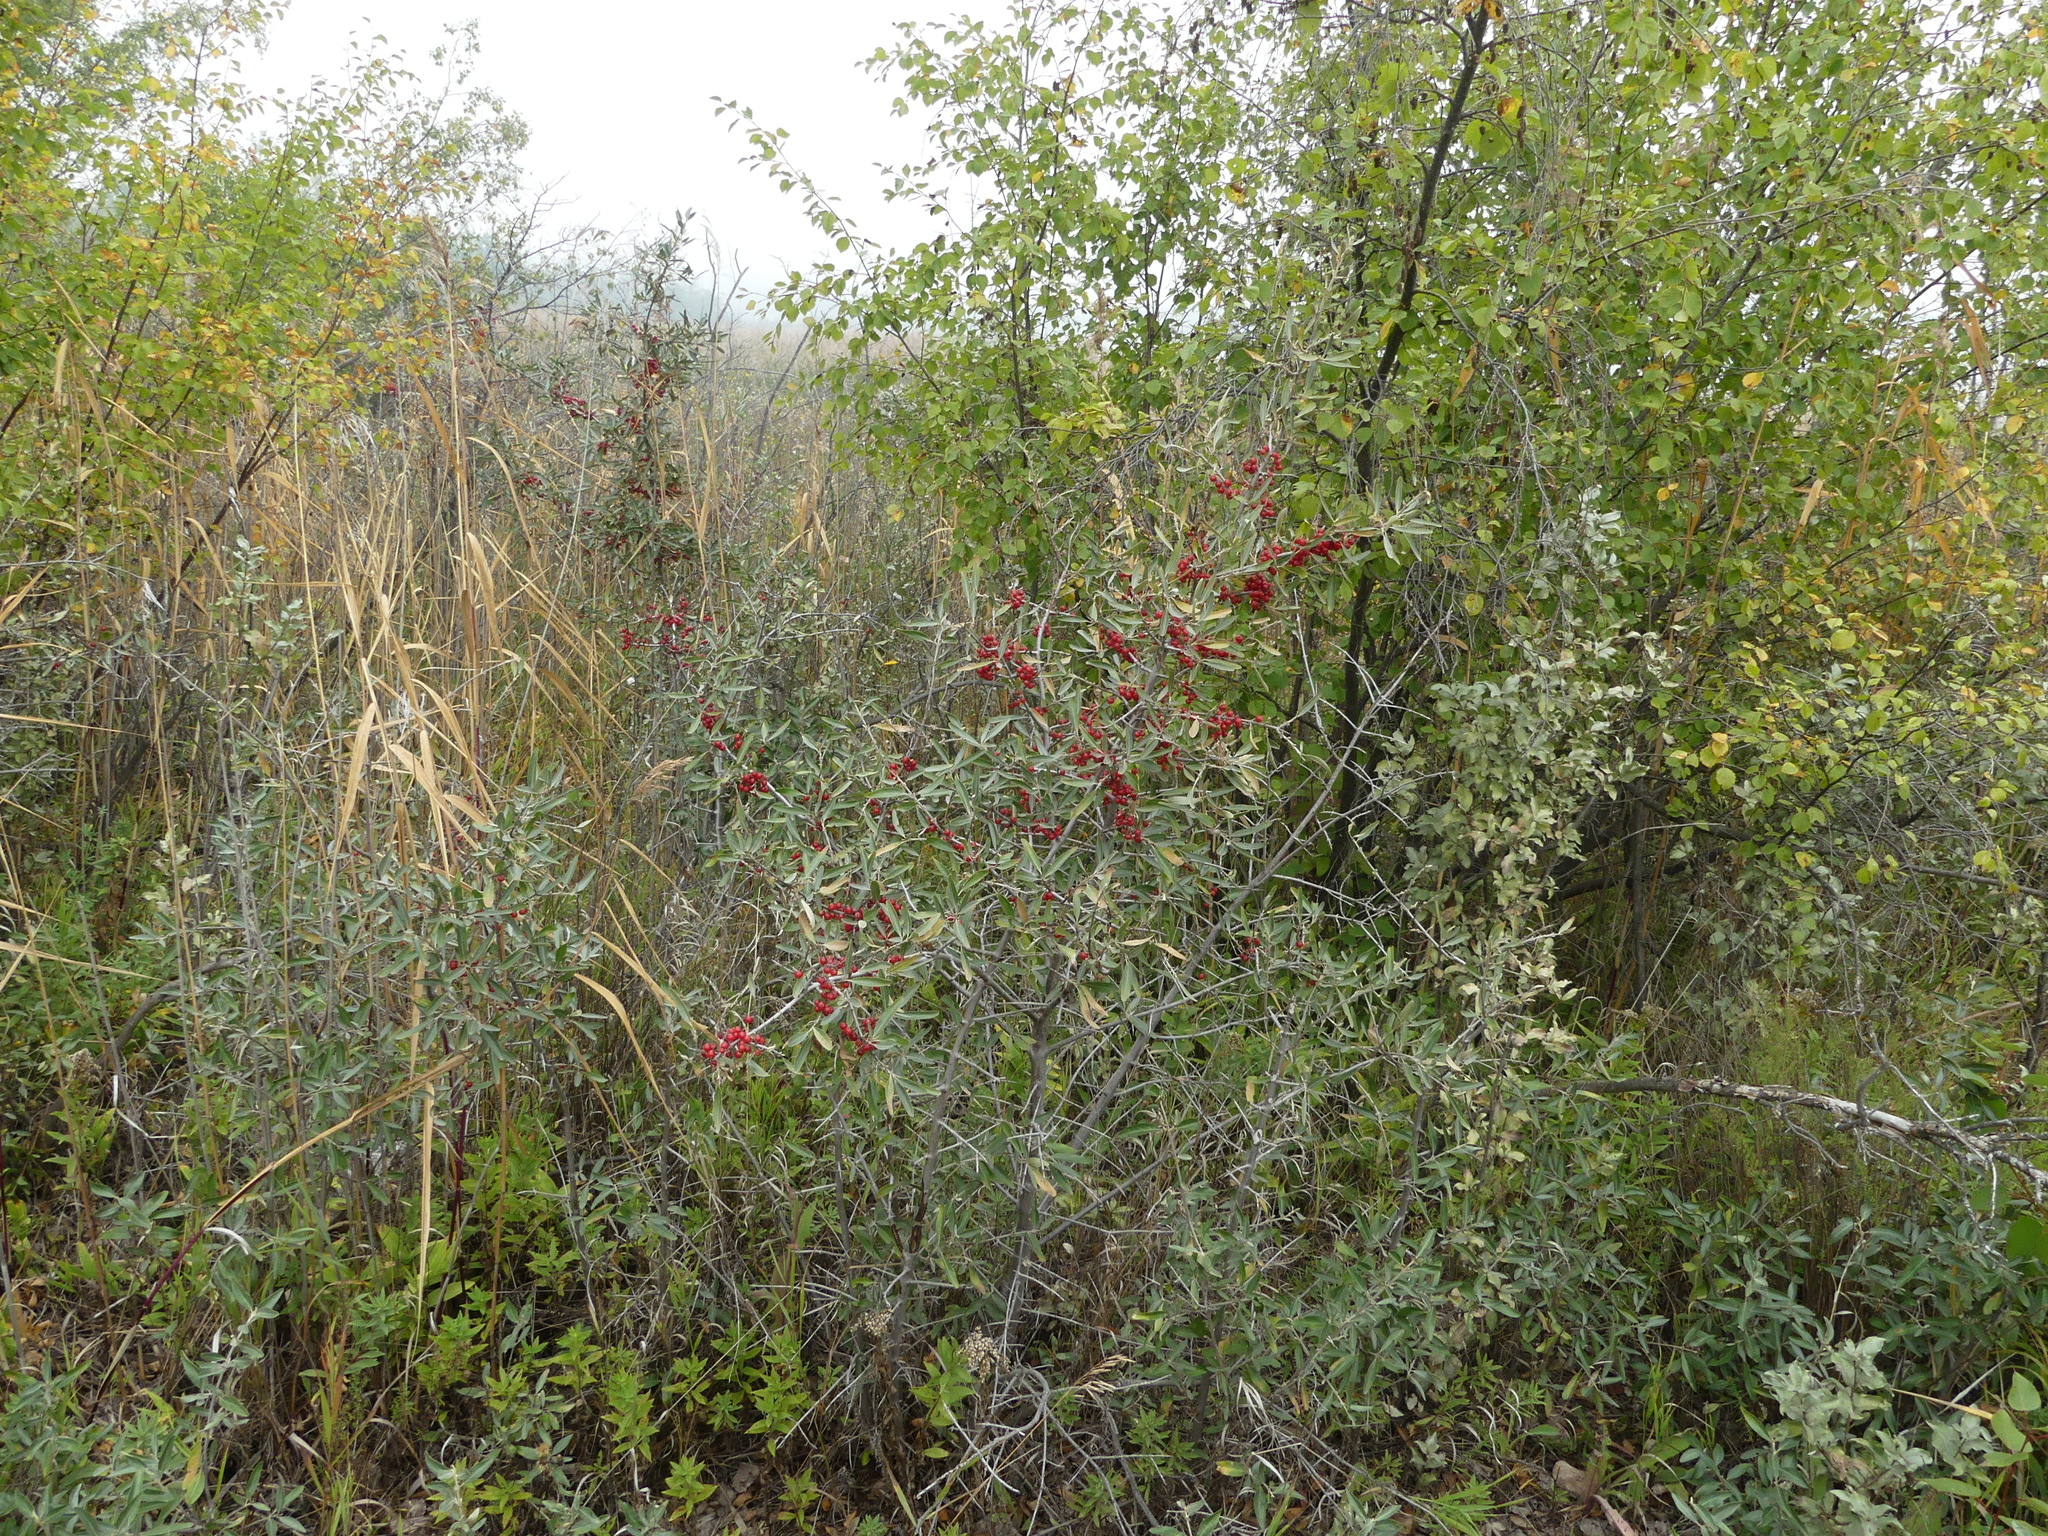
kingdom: Plantae
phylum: Tracheophyta
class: Magnoliopsida
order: Rosales
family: Elaeagnaceae
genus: Shepherdia
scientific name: Shepherdia argentea
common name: Silver buffaloberry
